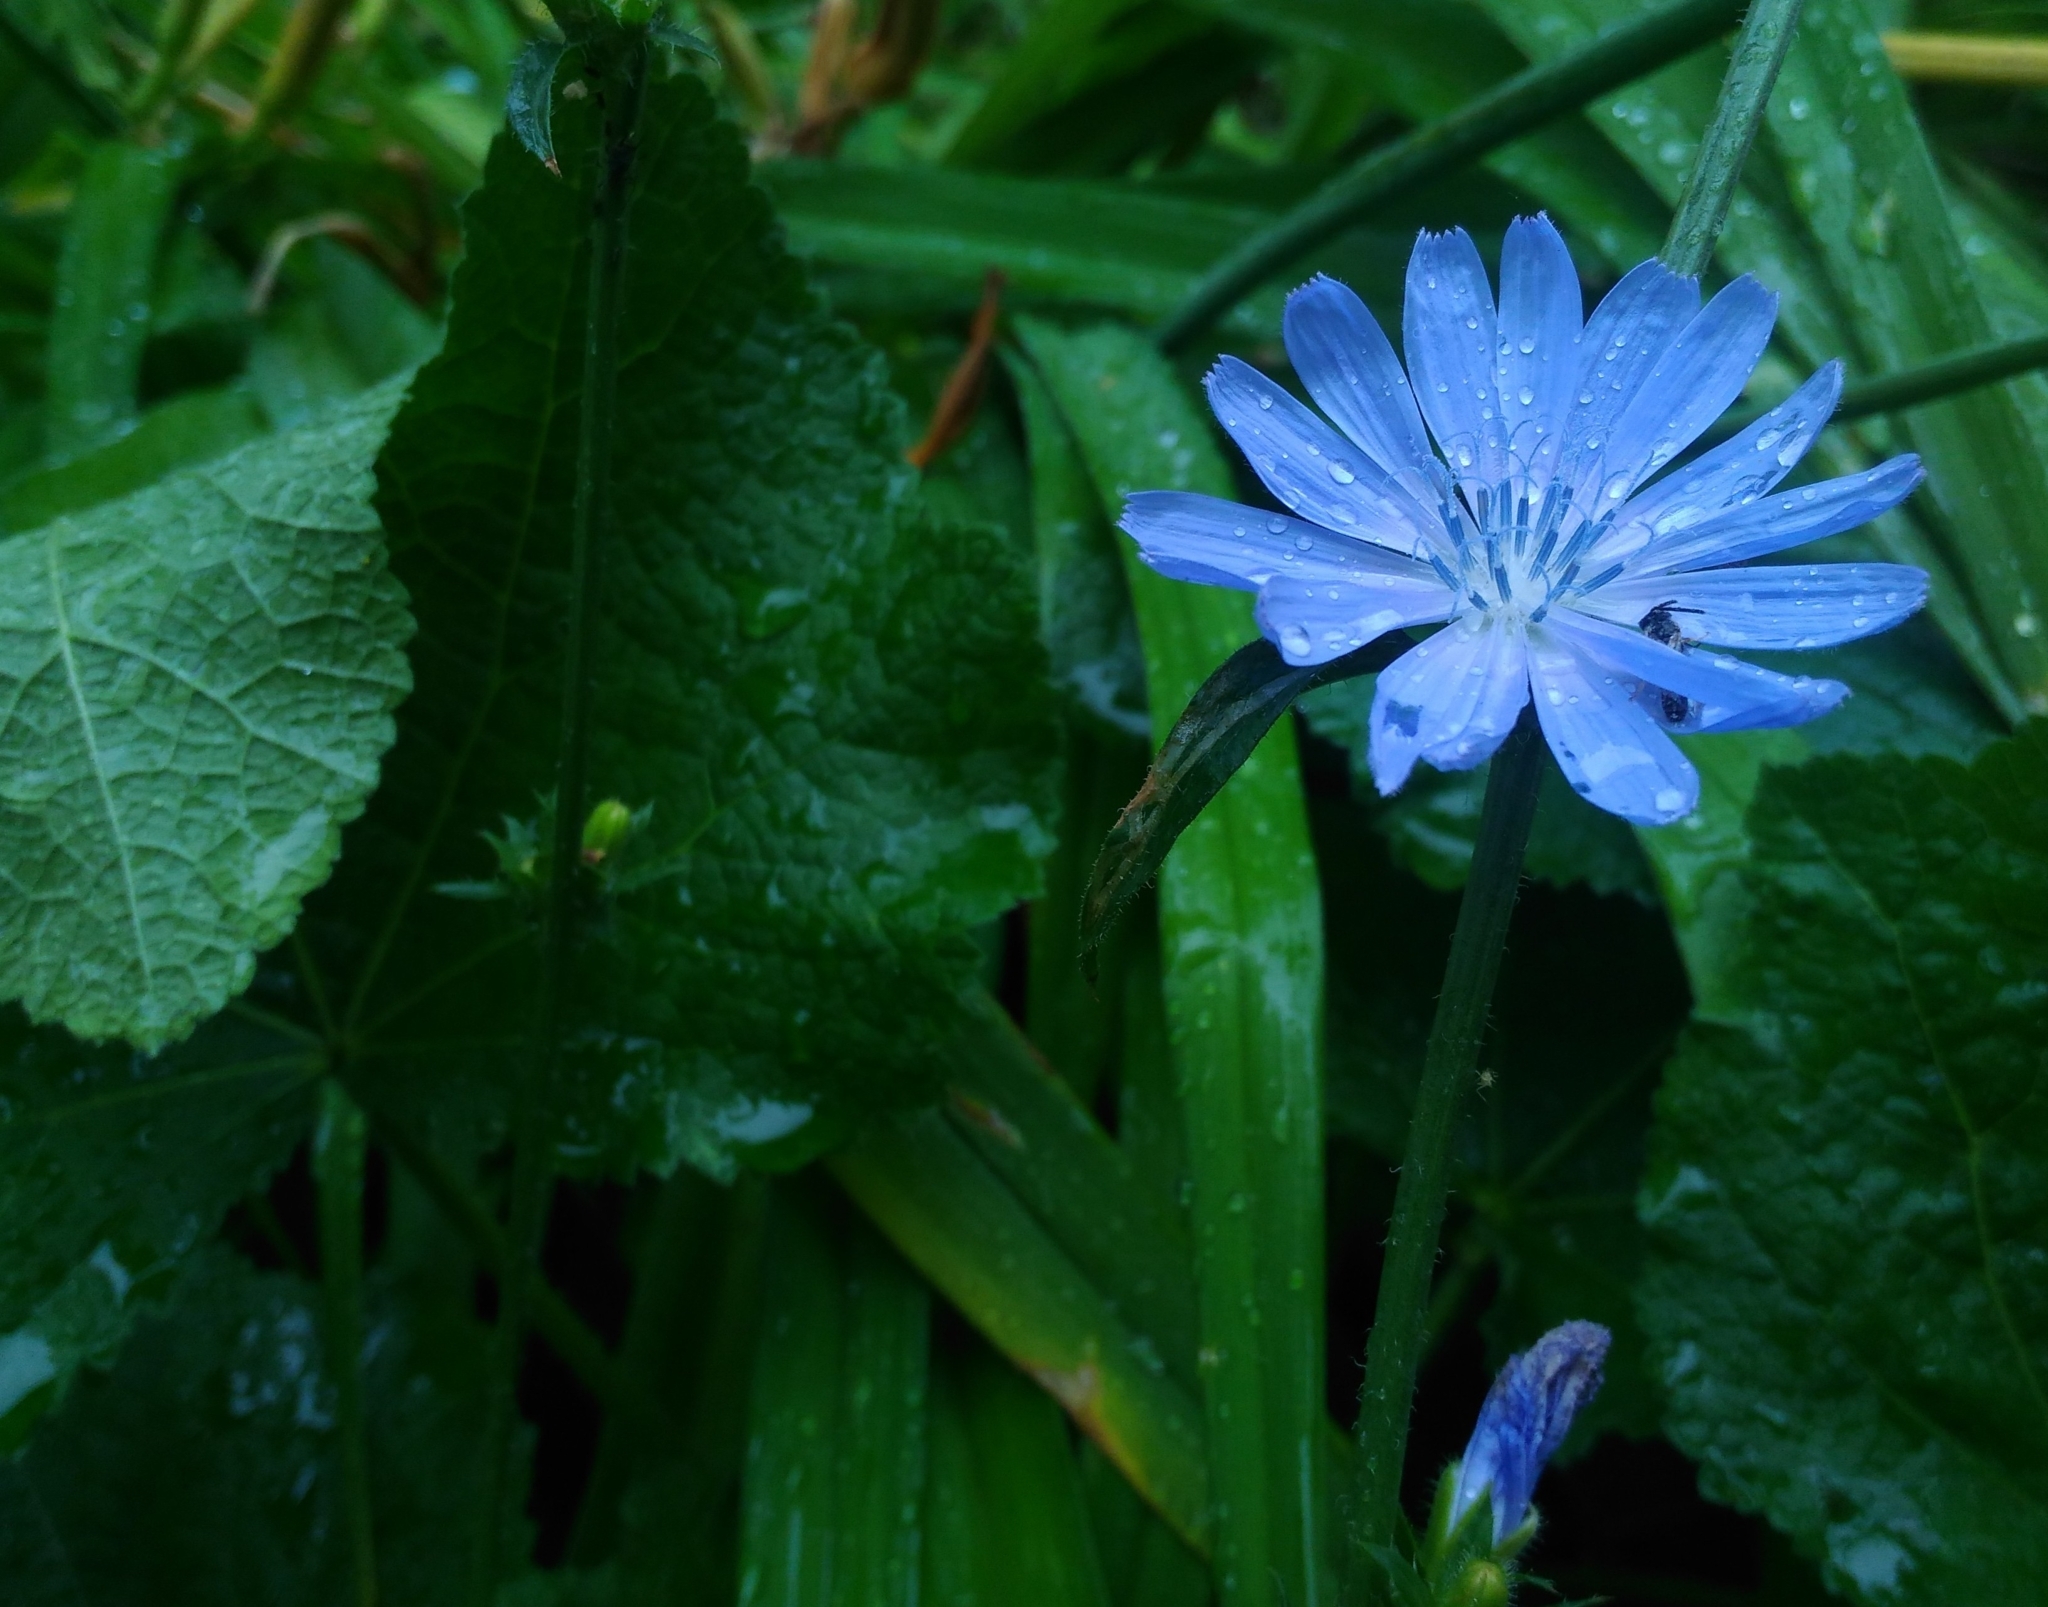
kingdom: Plantae
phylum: Tracheophyta
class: Magnoliopsida
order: Asterales
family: Asteraceae
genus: Cichorium
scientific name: Cichorium intybus
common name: Chicory
